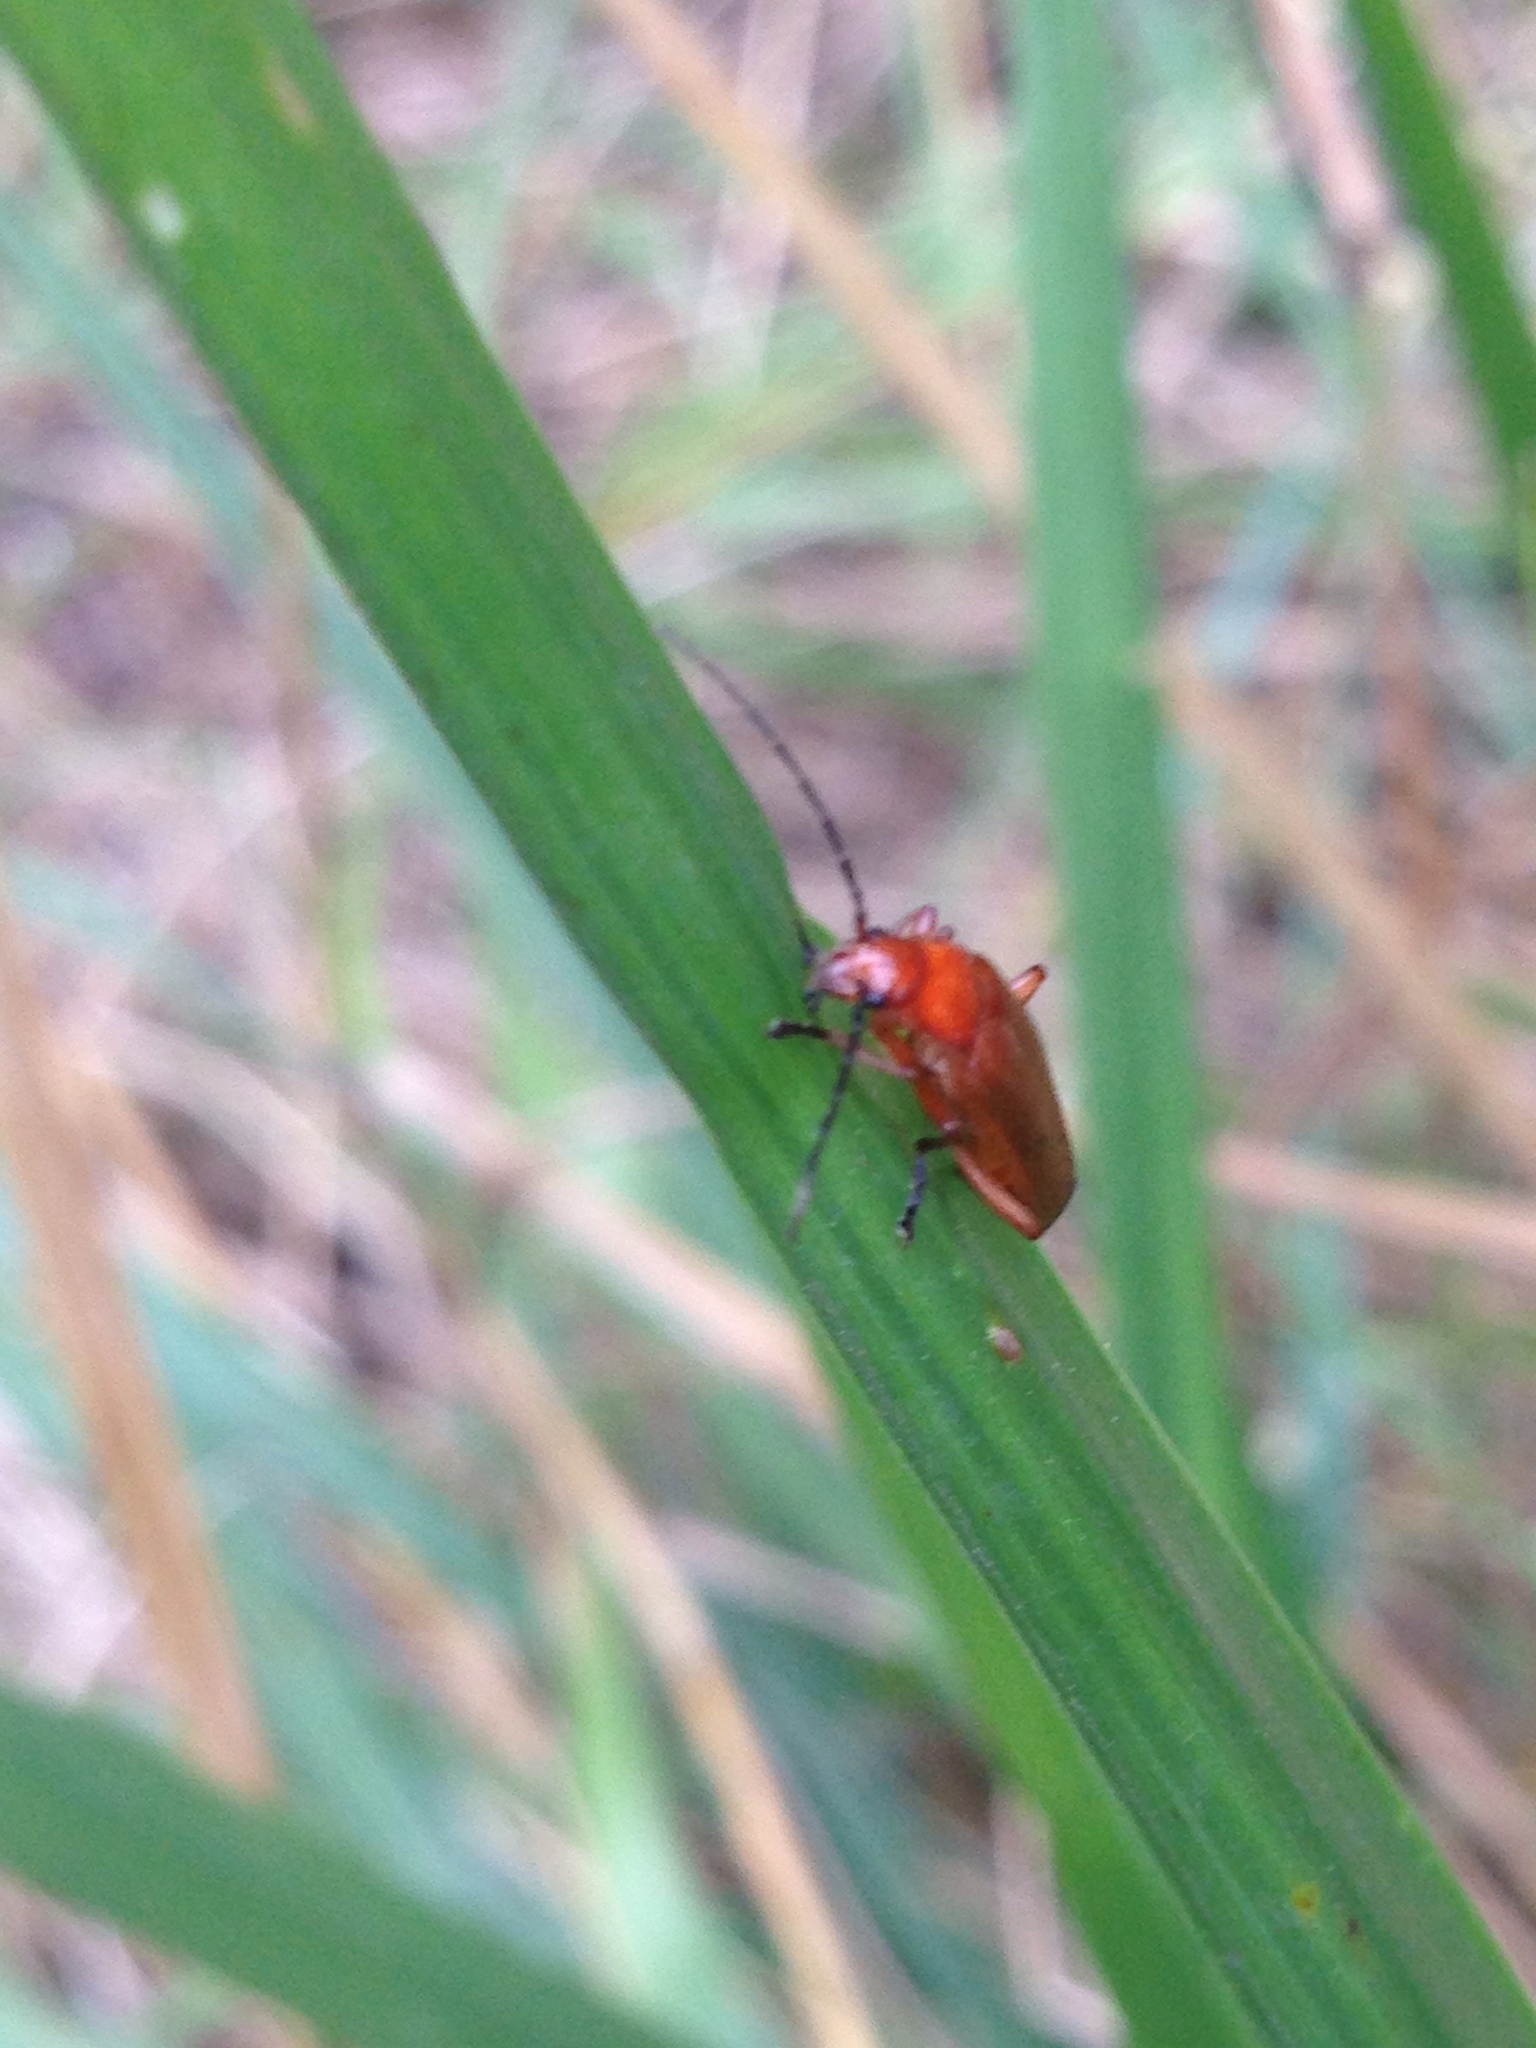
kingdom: Animalia
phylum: Arthropoda
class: Insecta
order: Coleoptera
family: Cantharidae
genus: Rhagonycha
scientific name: Rhagonycha fulva
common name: Common red soldier beetle
